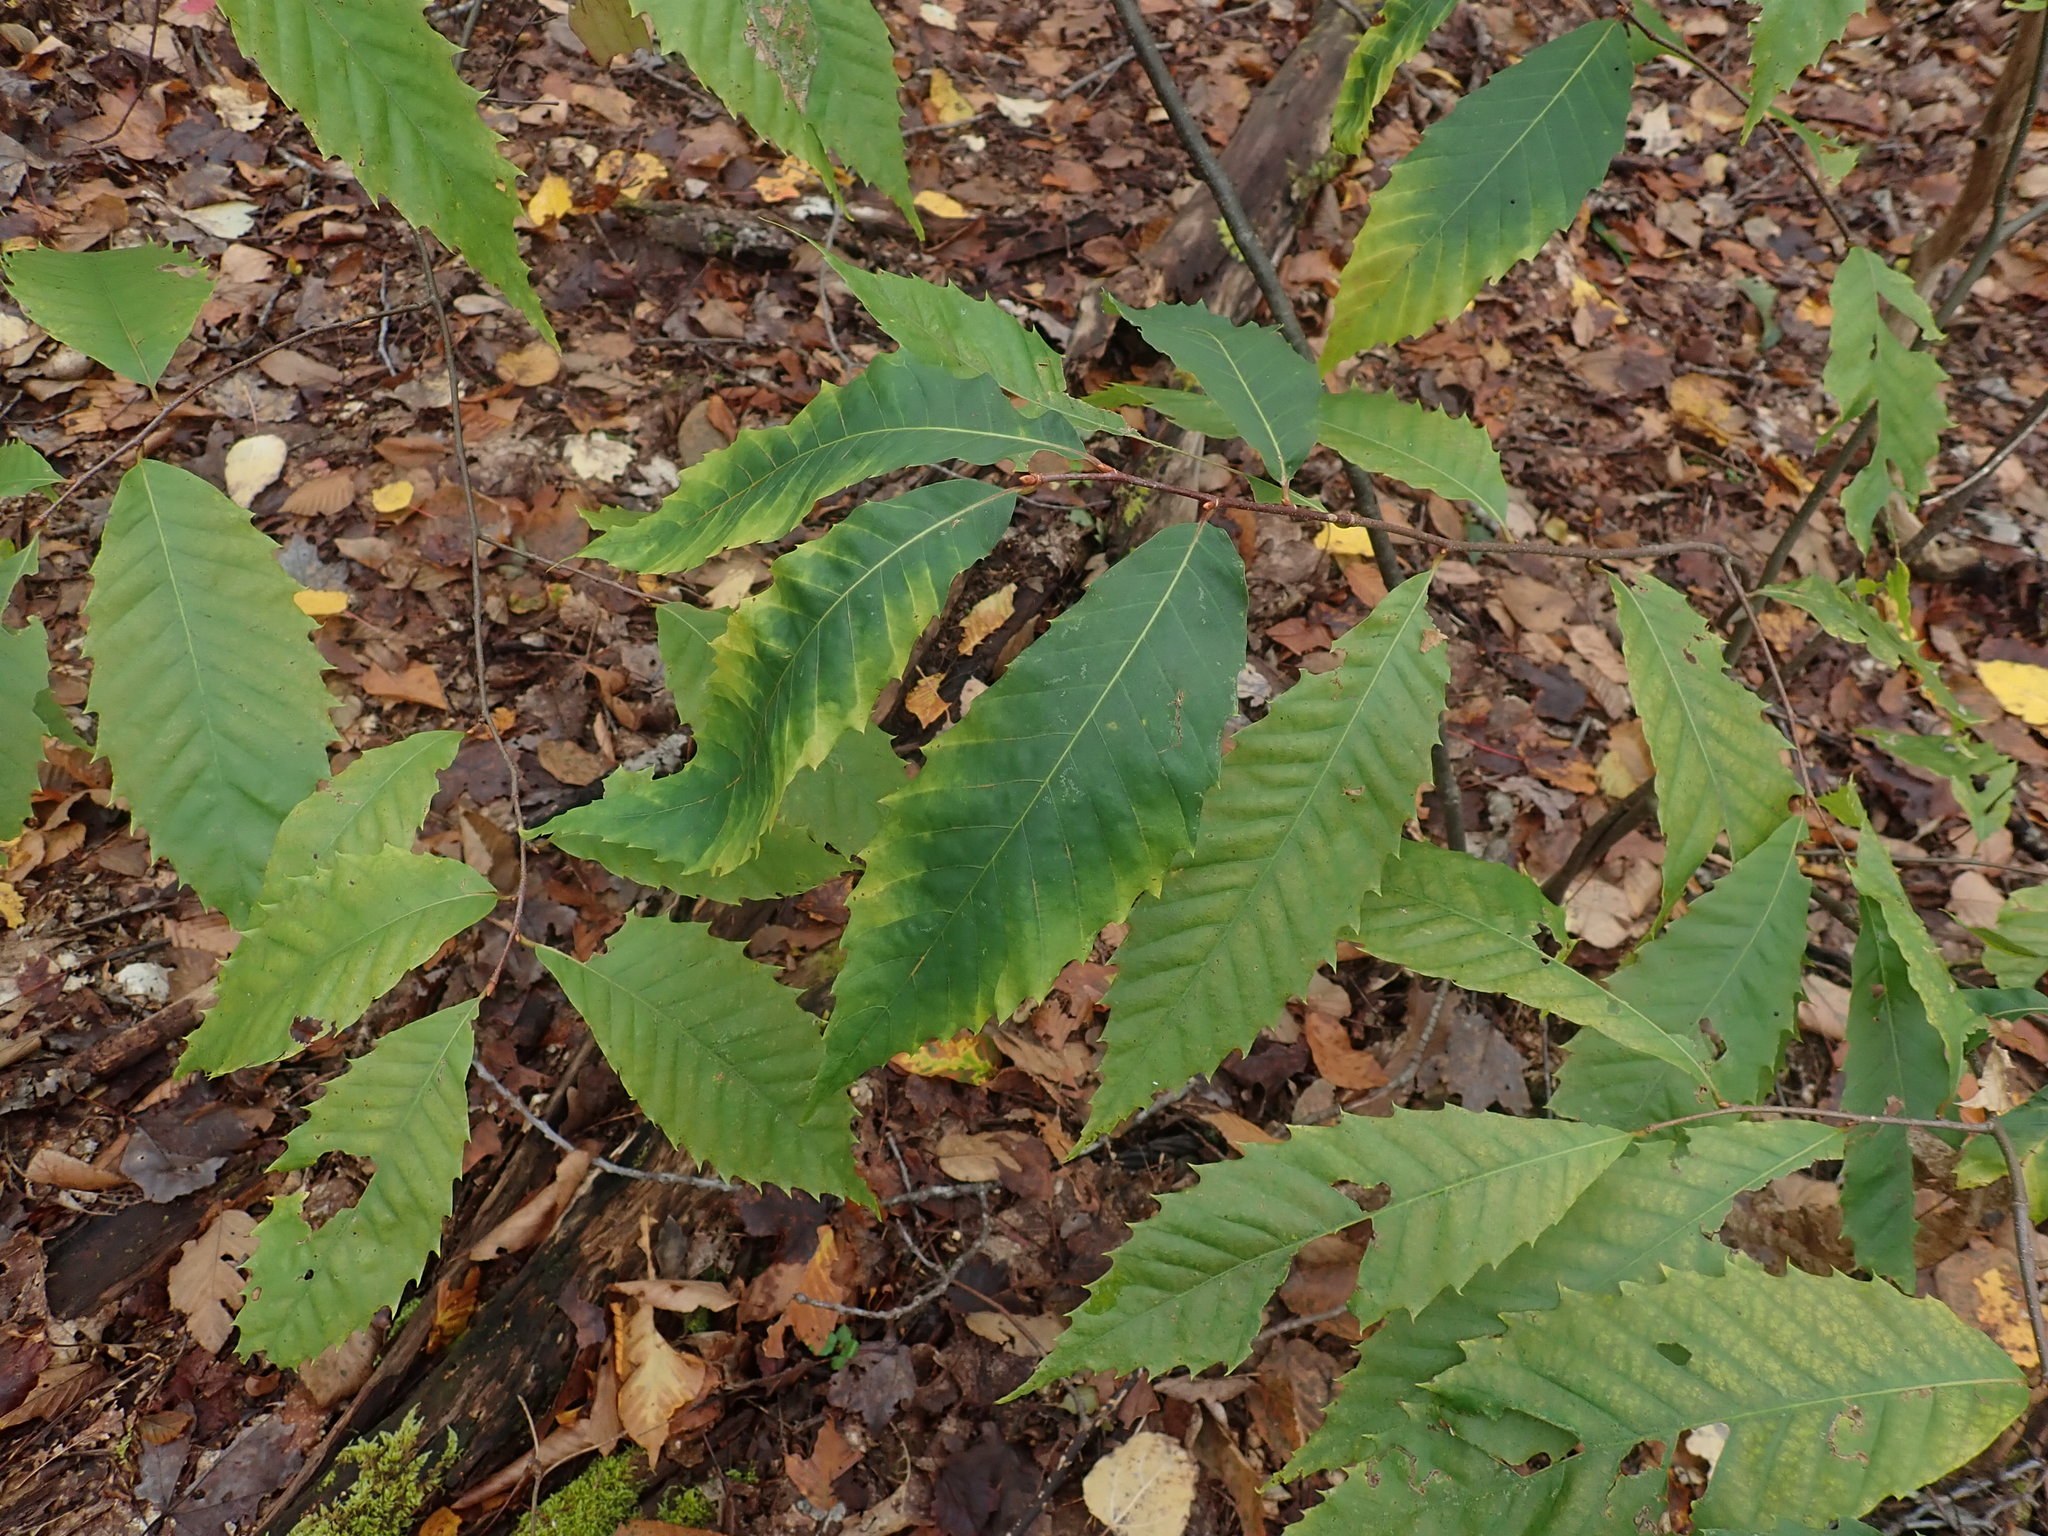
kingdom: Plantae
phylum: Tracheophyta
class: Magnoliopsida
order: Fagales
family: Fagaceae
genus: Castanea
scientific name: Castanea dentata
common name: American chestnut
